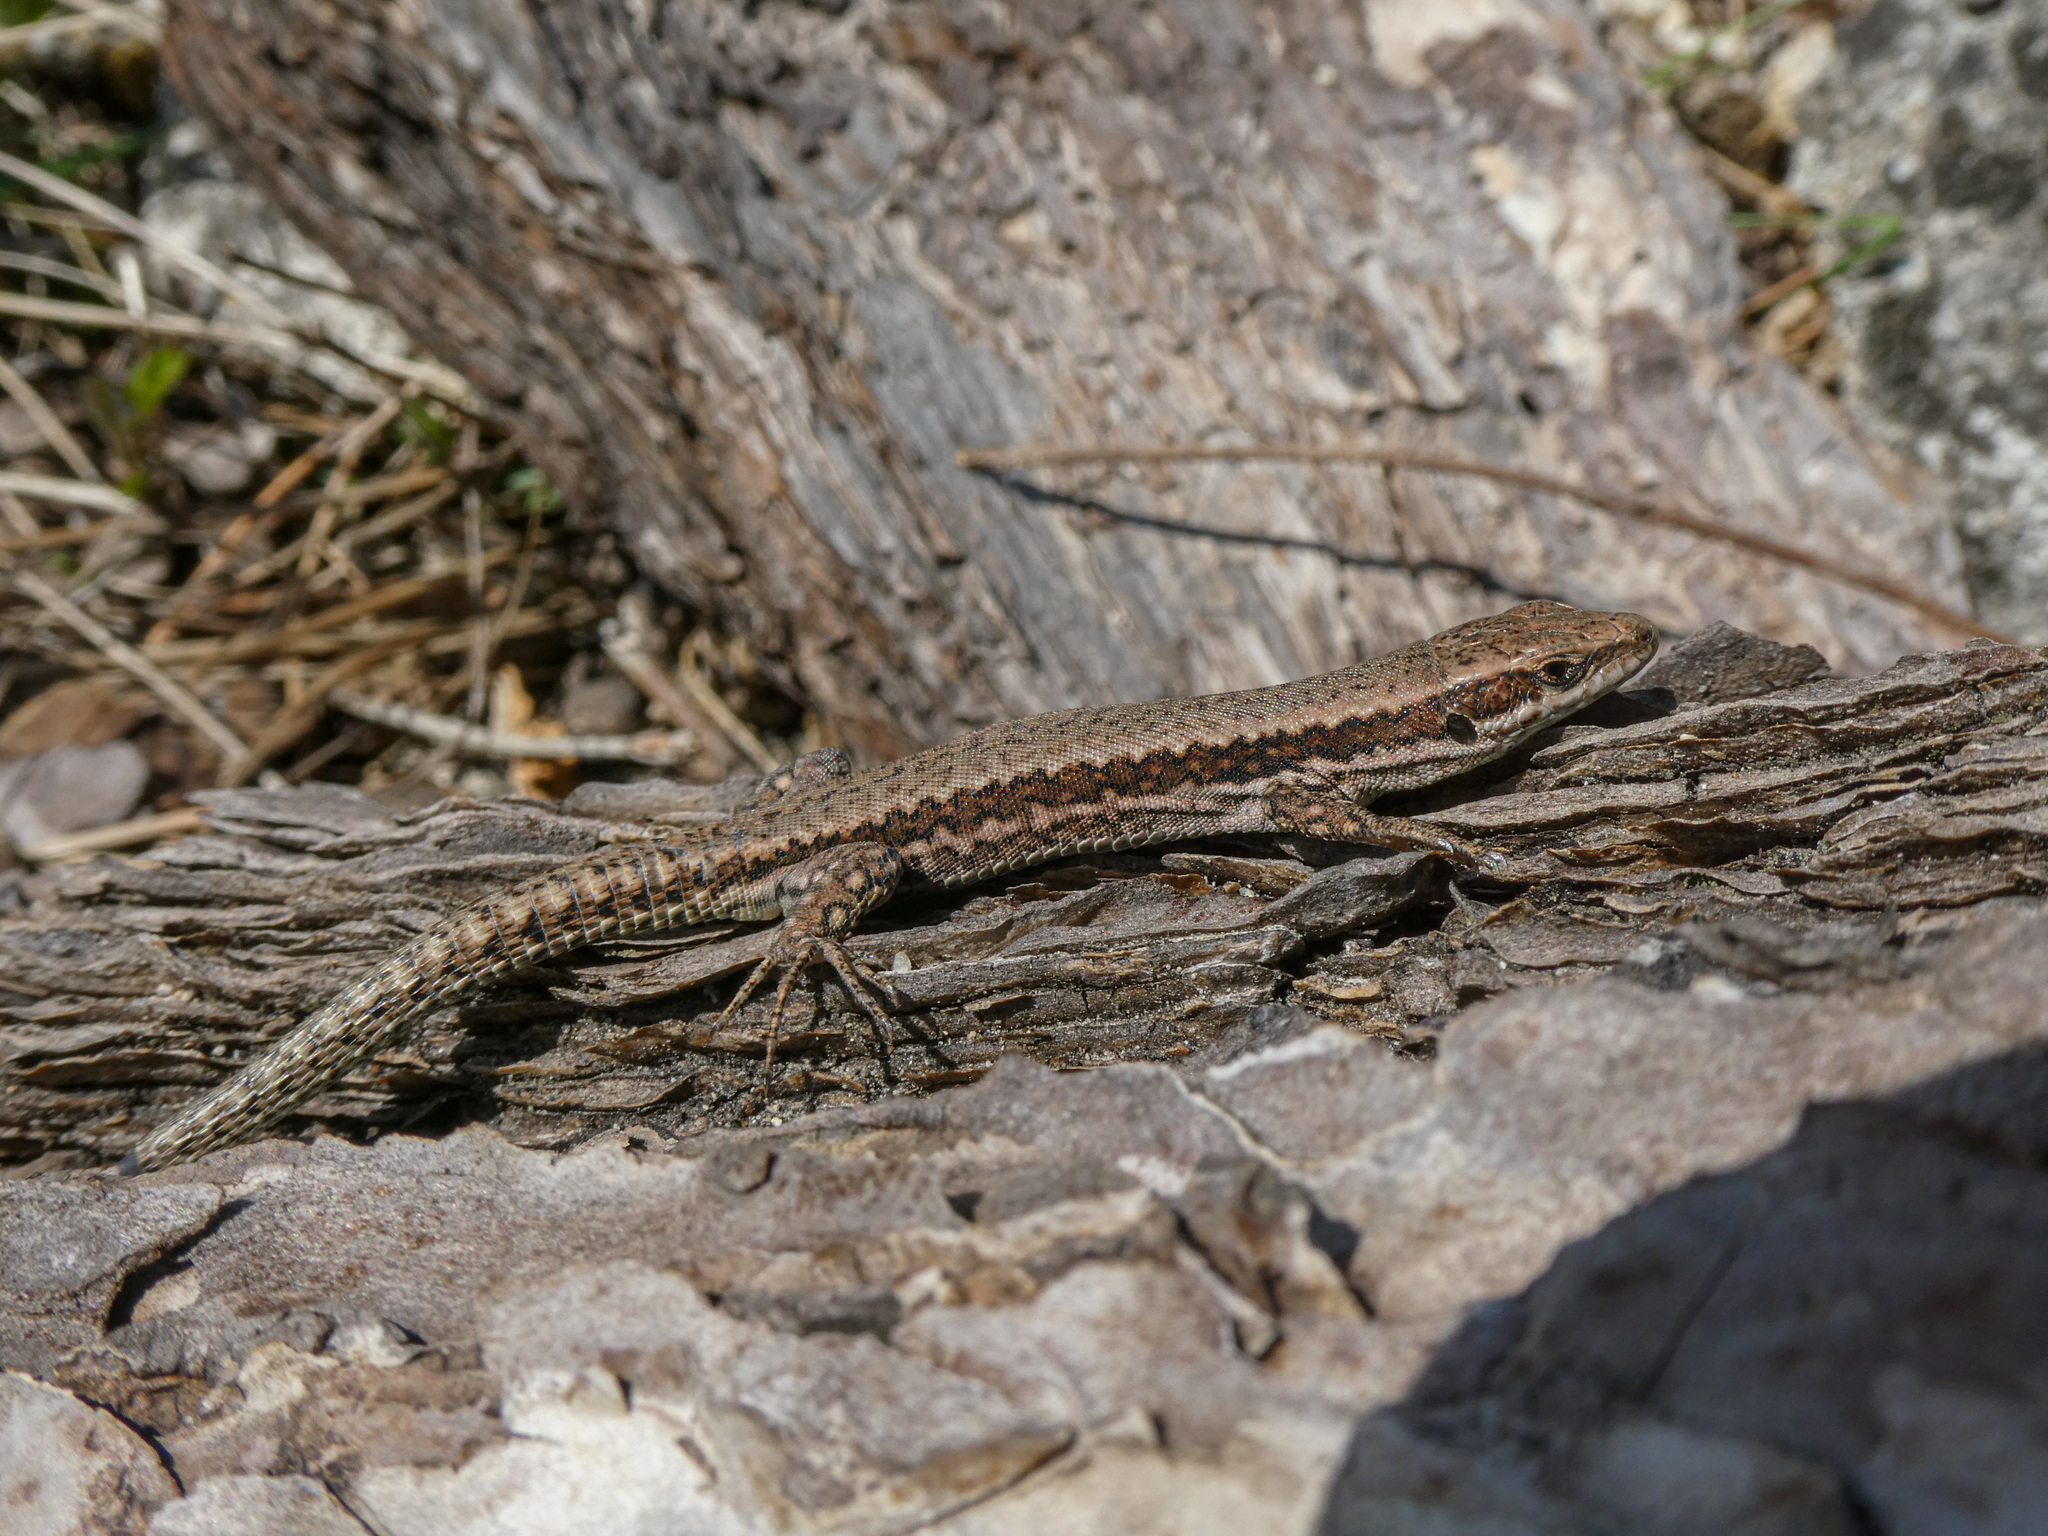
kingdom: Animalia
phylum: Chordata
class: Squamata
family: Lacertidae
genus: Podarcis
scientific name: Podarcis muralis
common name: Common wall lizard
